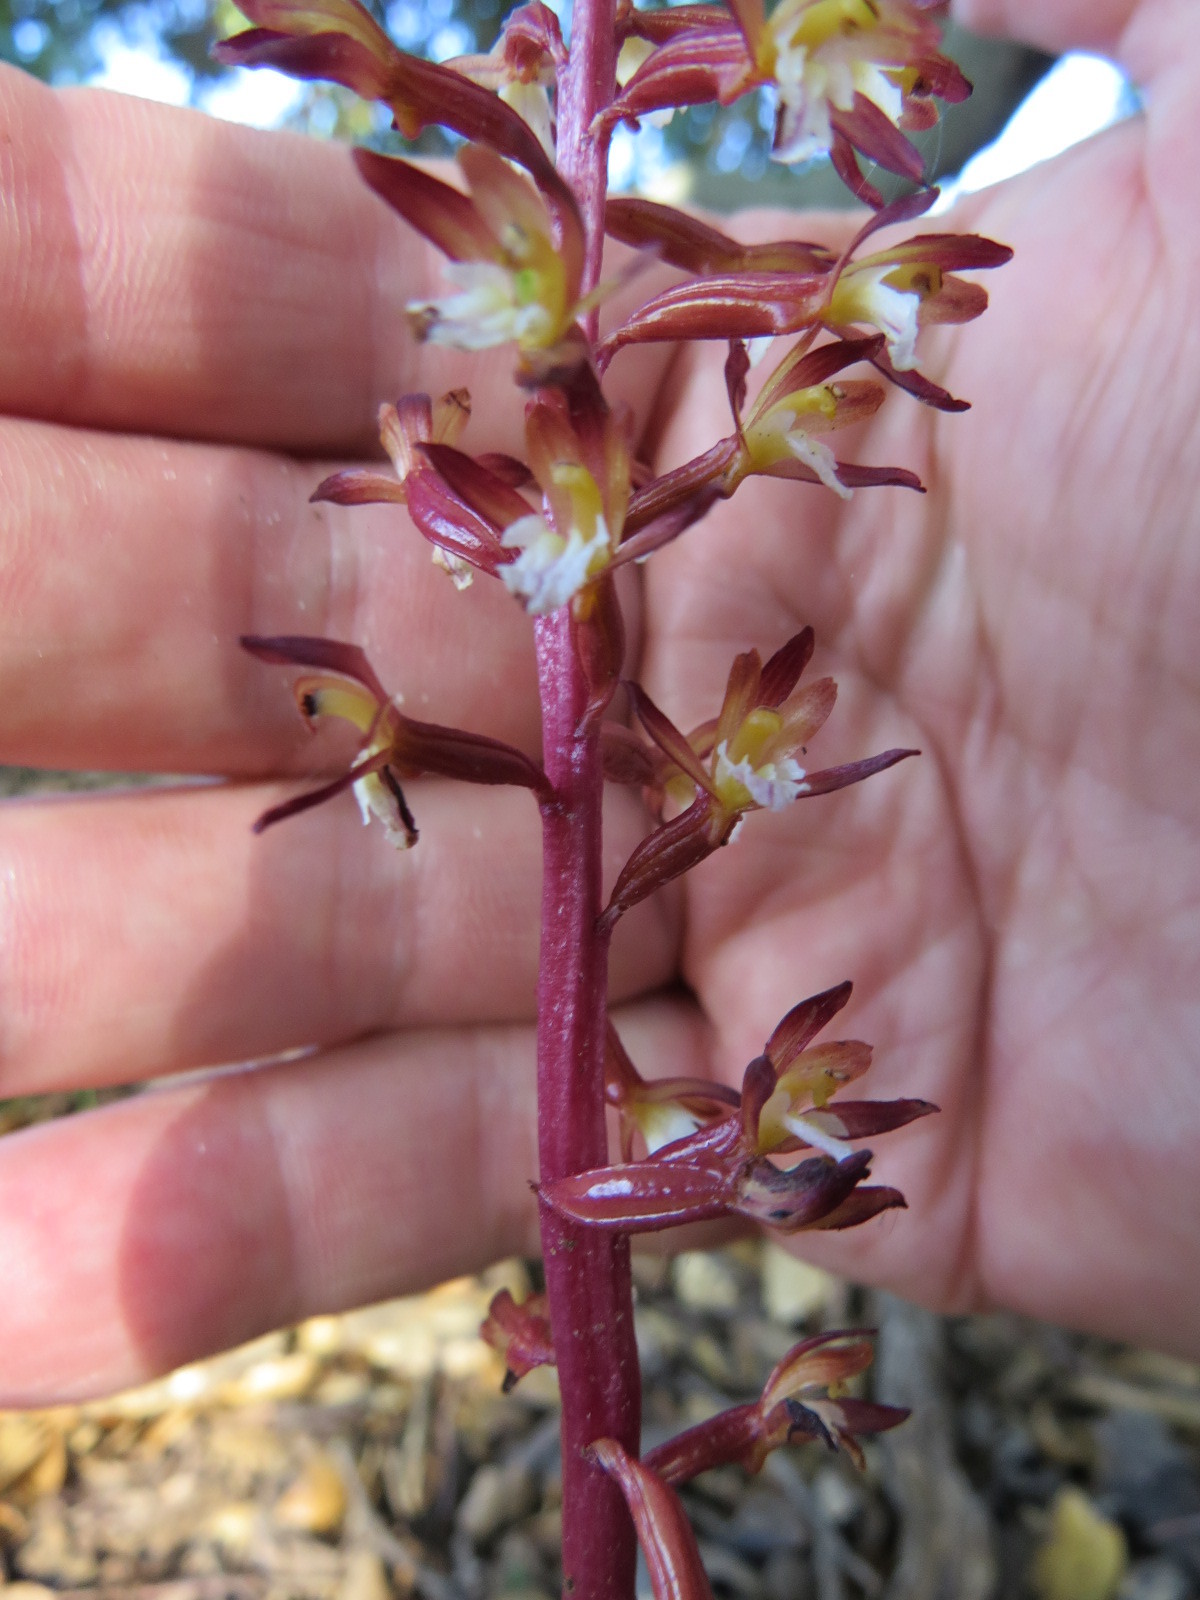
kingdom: Plantae
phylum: Tracheophyta
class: Liliopsida
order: Asparagales
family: Orchidaceae
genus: Corallorhiza
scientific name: Corallorhiza maculata
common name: Spotted coralroot
